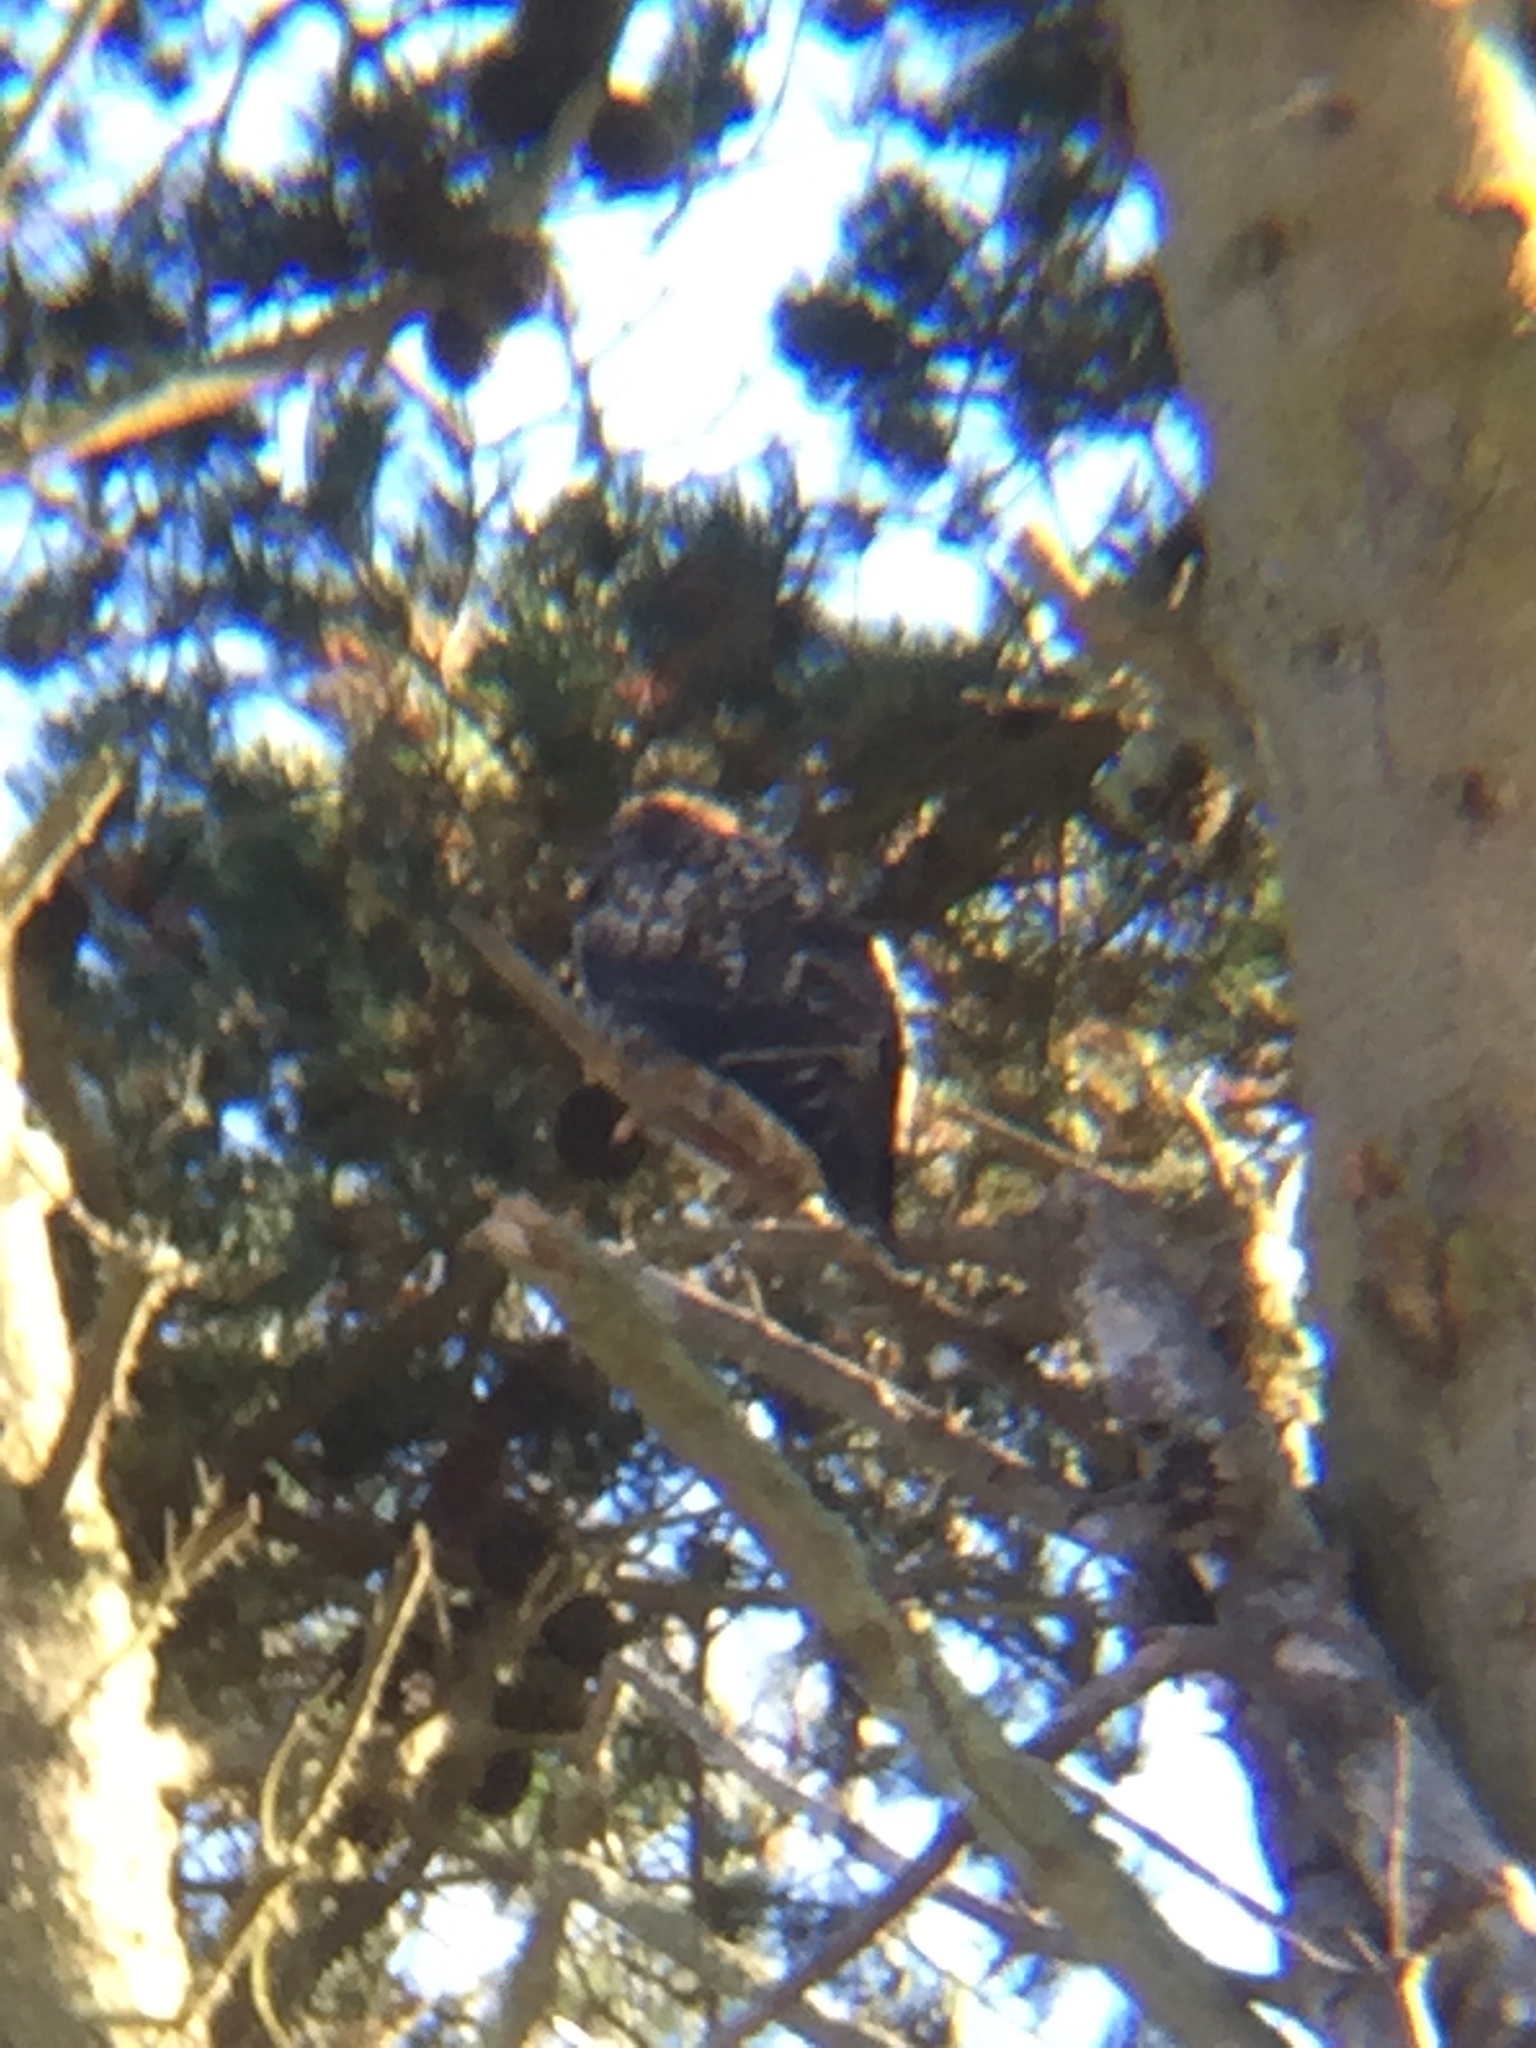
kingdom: Animalia
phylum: Chordata
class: Aves
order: Accipitriformes
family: Accipitridae
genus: Buteo
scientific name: Buteo jamaicensis
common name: Red-tailed hawk
